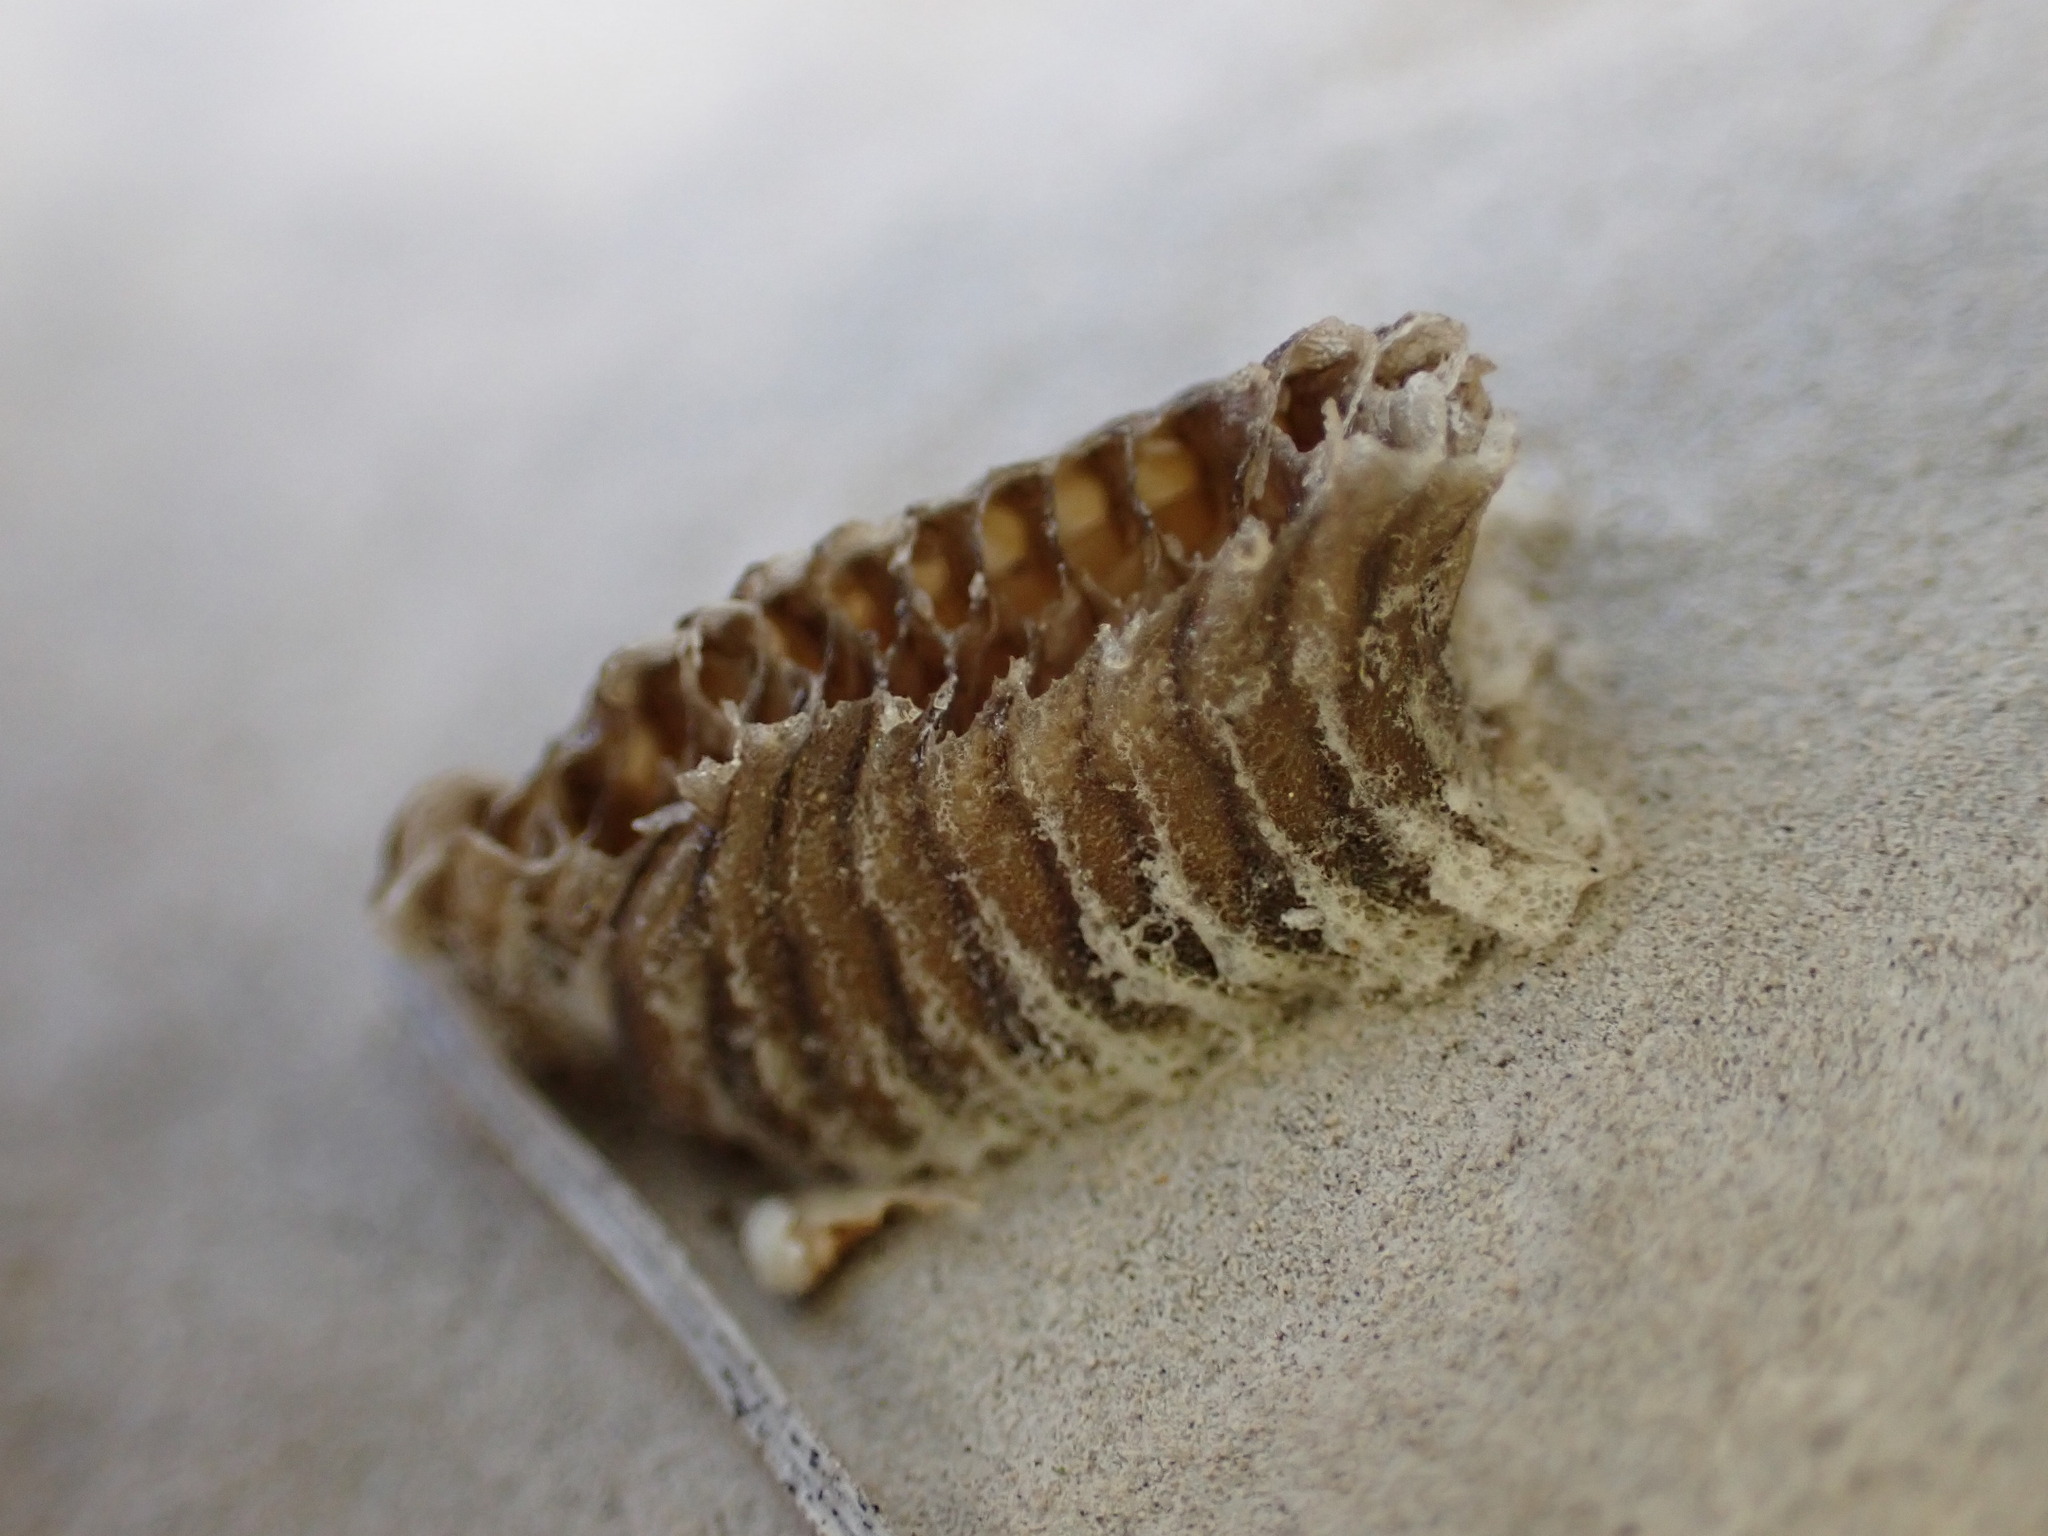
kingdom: Animalia
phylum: Arthropoda
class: Insecta
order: Mantodea
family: Eremiaphilidae
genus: Iris
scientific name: Iris oratoria
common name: Mediterranean mantis
